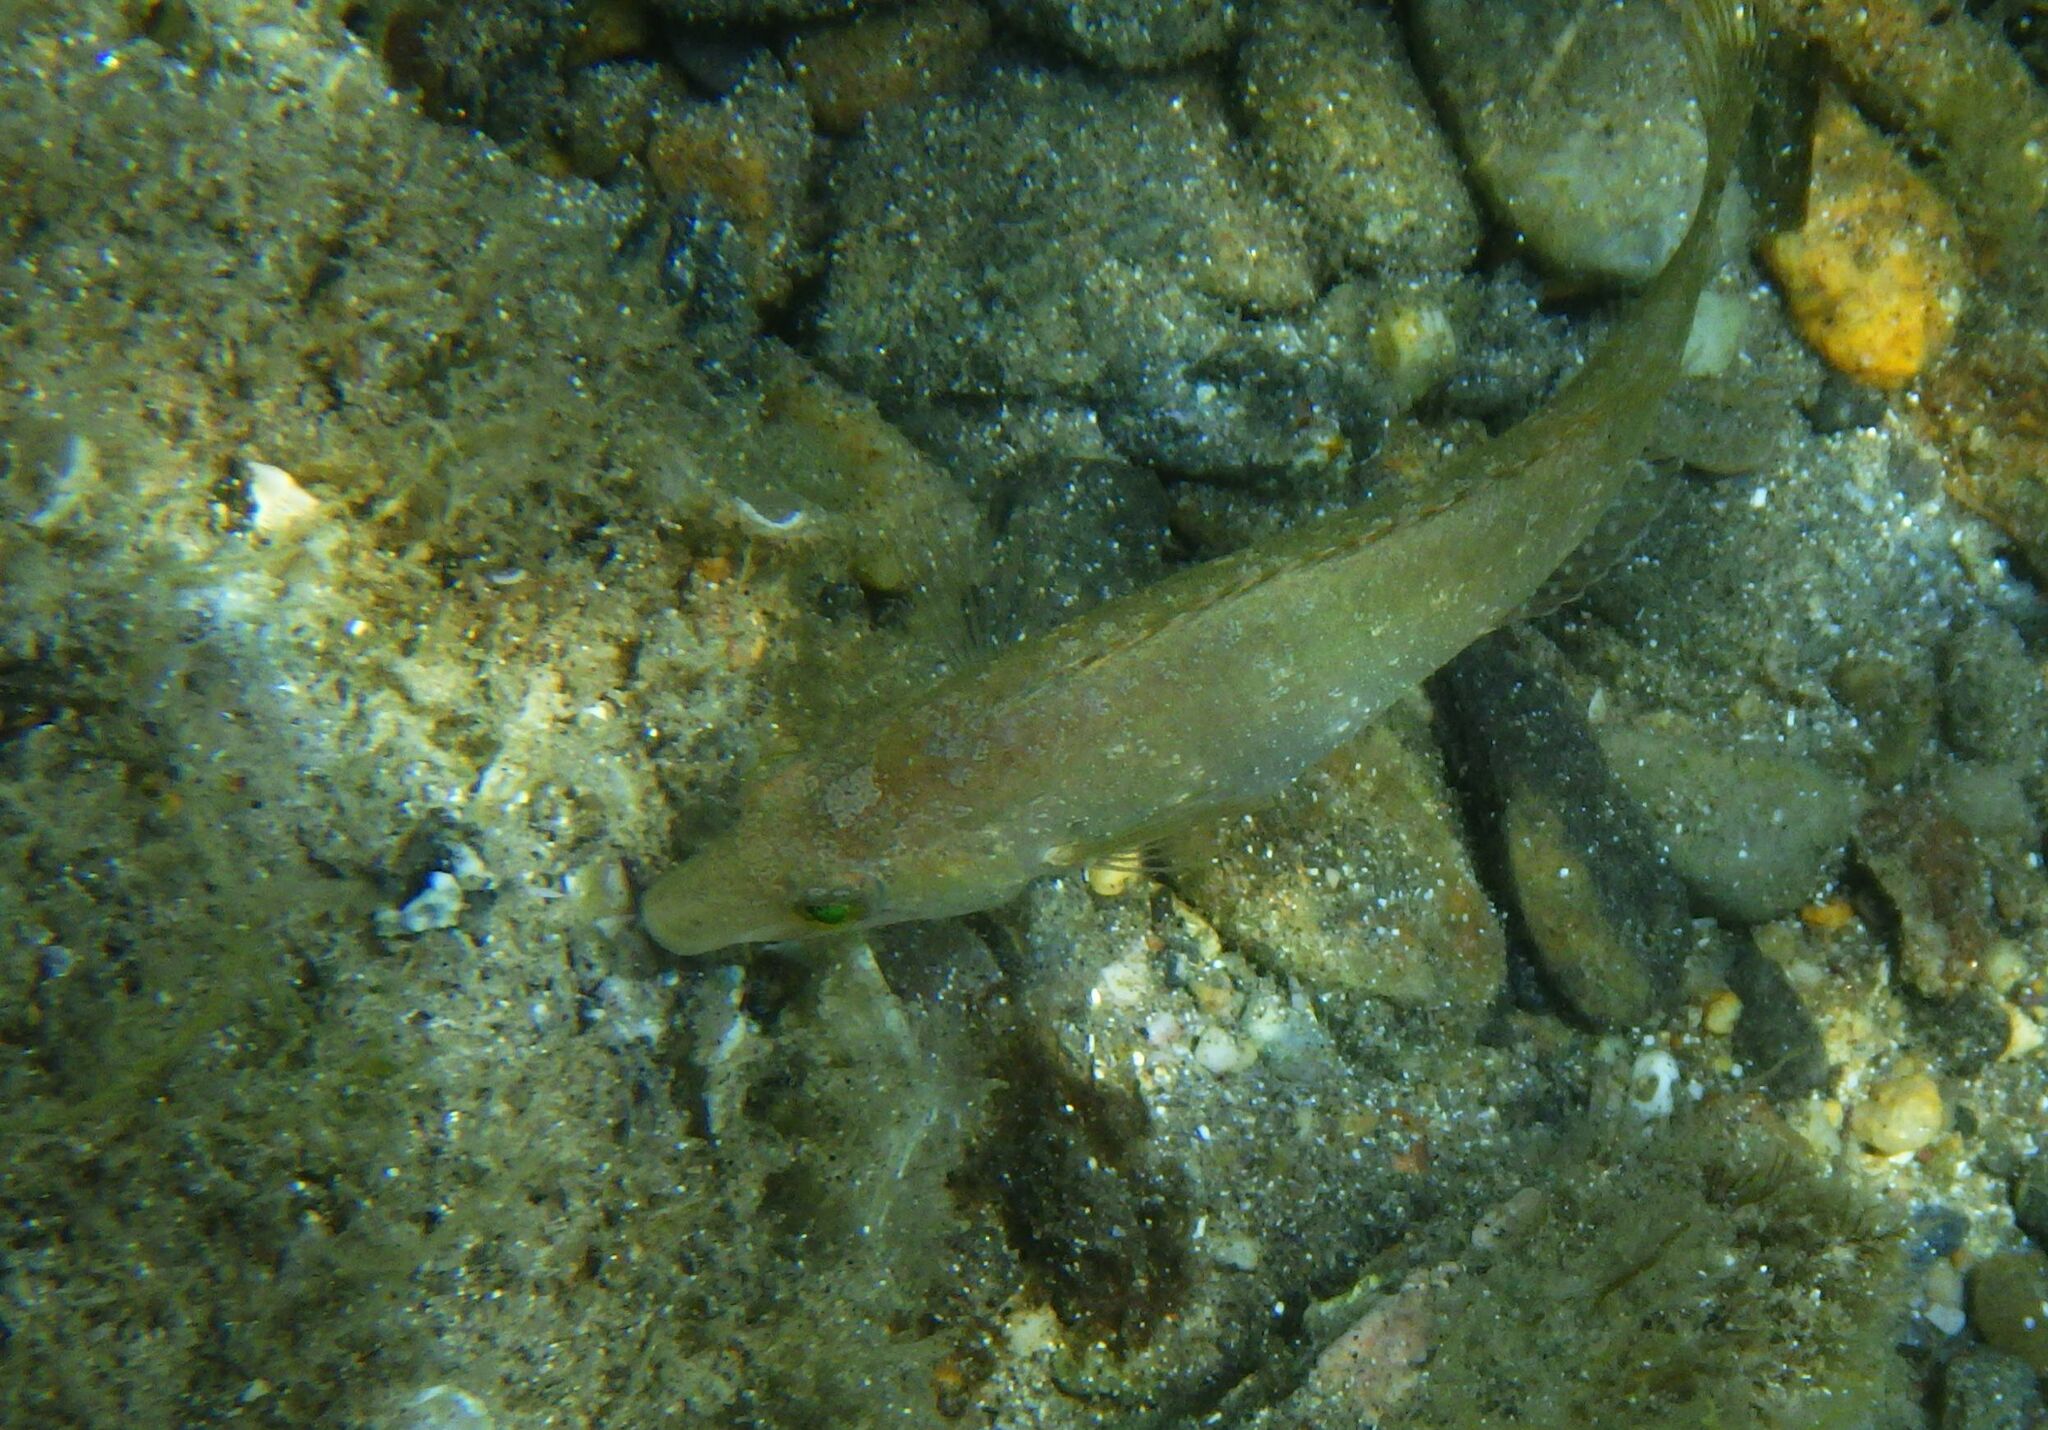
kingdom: Animalia
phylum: Chordata
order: Perciformes
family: Labridae
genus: Symphodus
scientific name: Symphodus cinereus
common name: Grey wrasse
